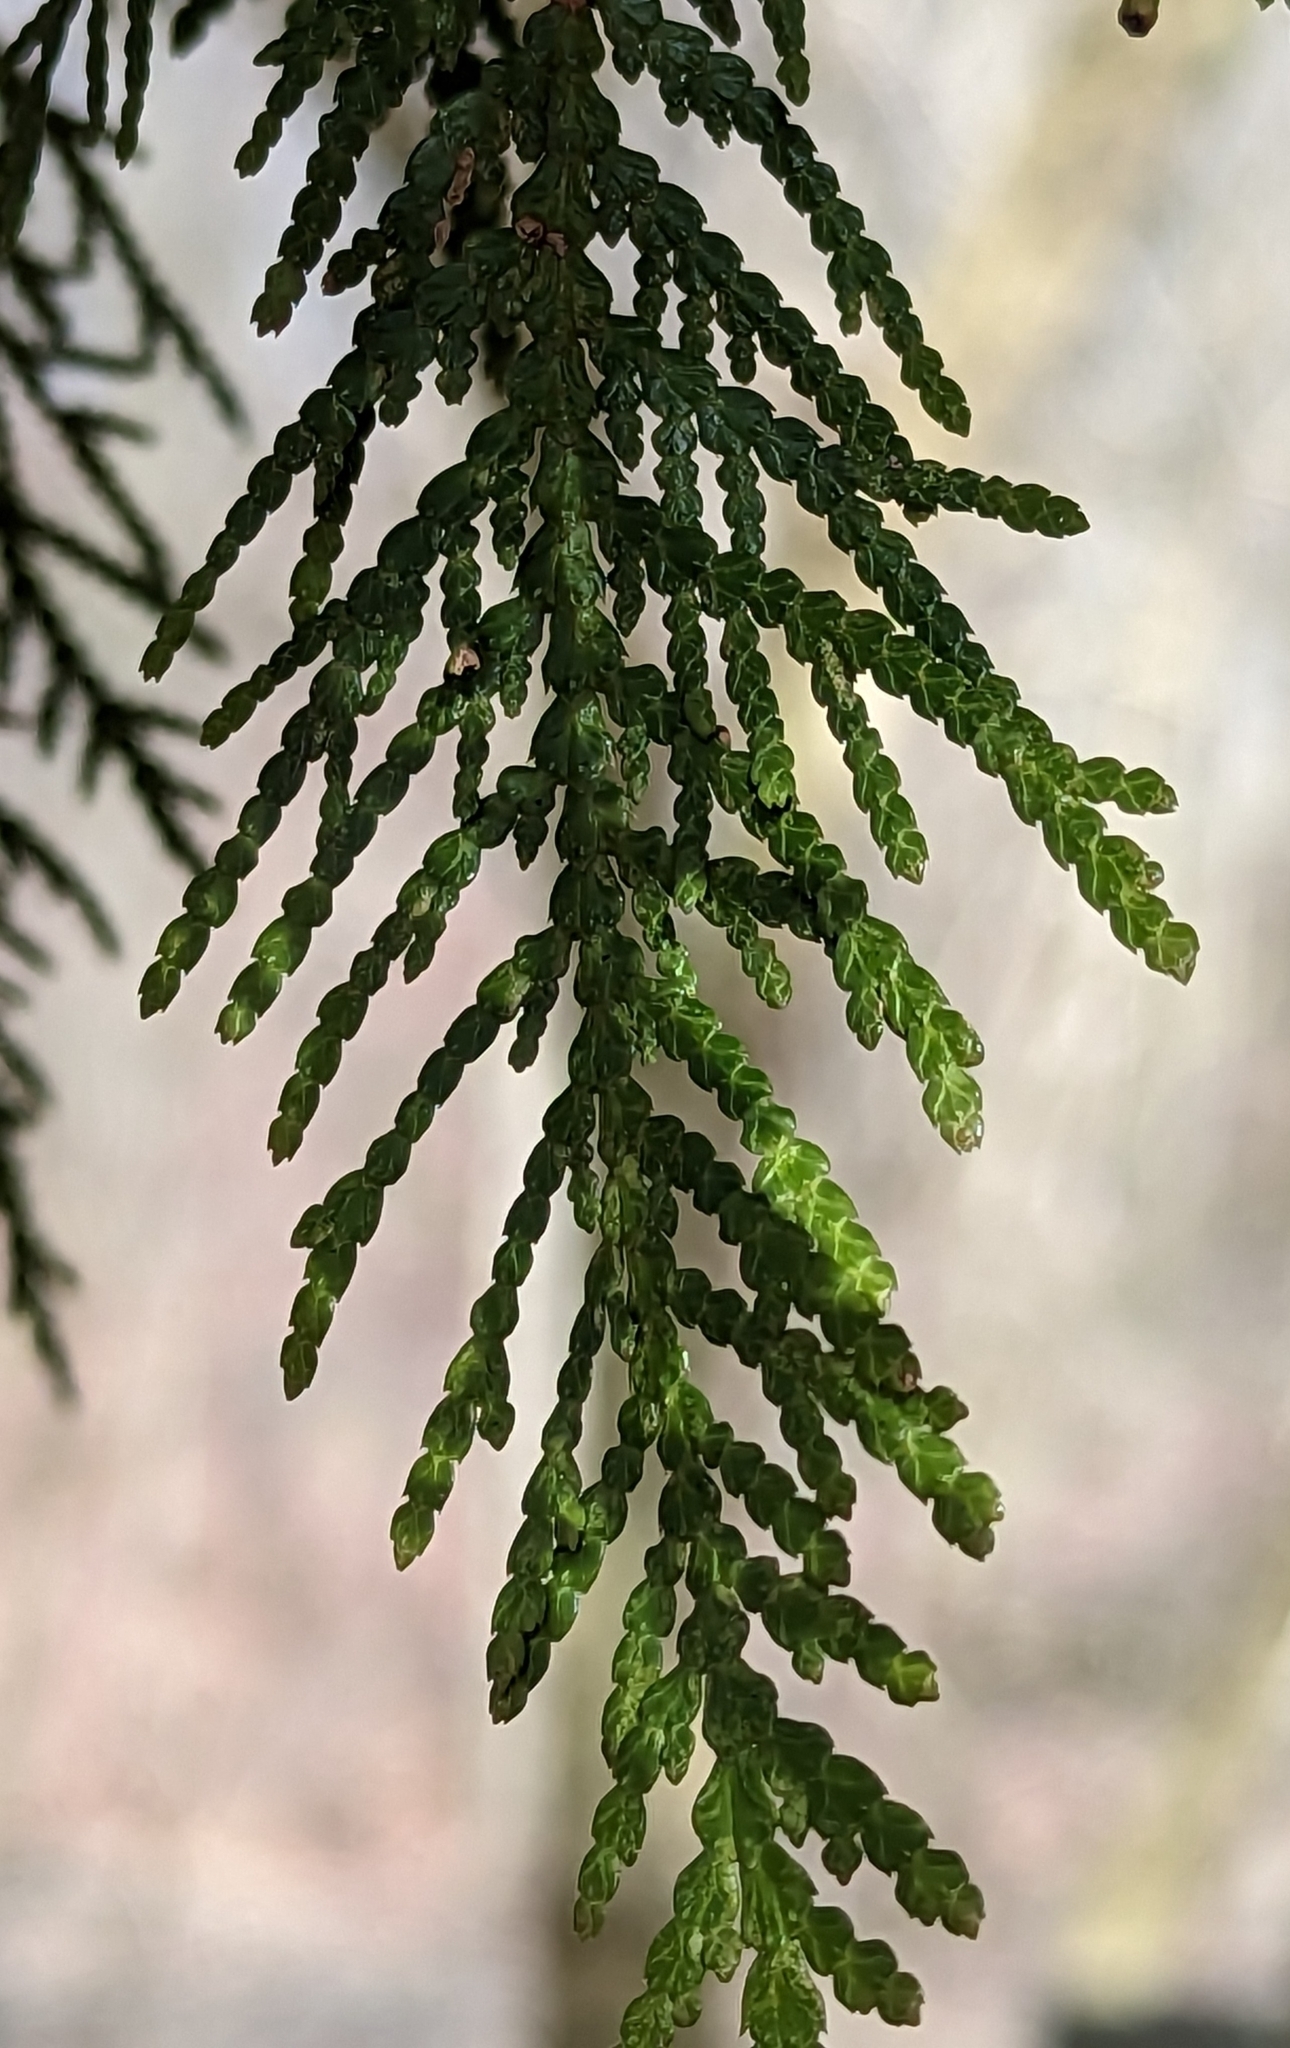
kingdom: Plantae
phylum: Tracheophyta
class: Pinopsida
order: Pinales
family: Cupressaceae
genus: Thuja
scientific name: Thuja occidentalis
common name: Northern white-cedar
